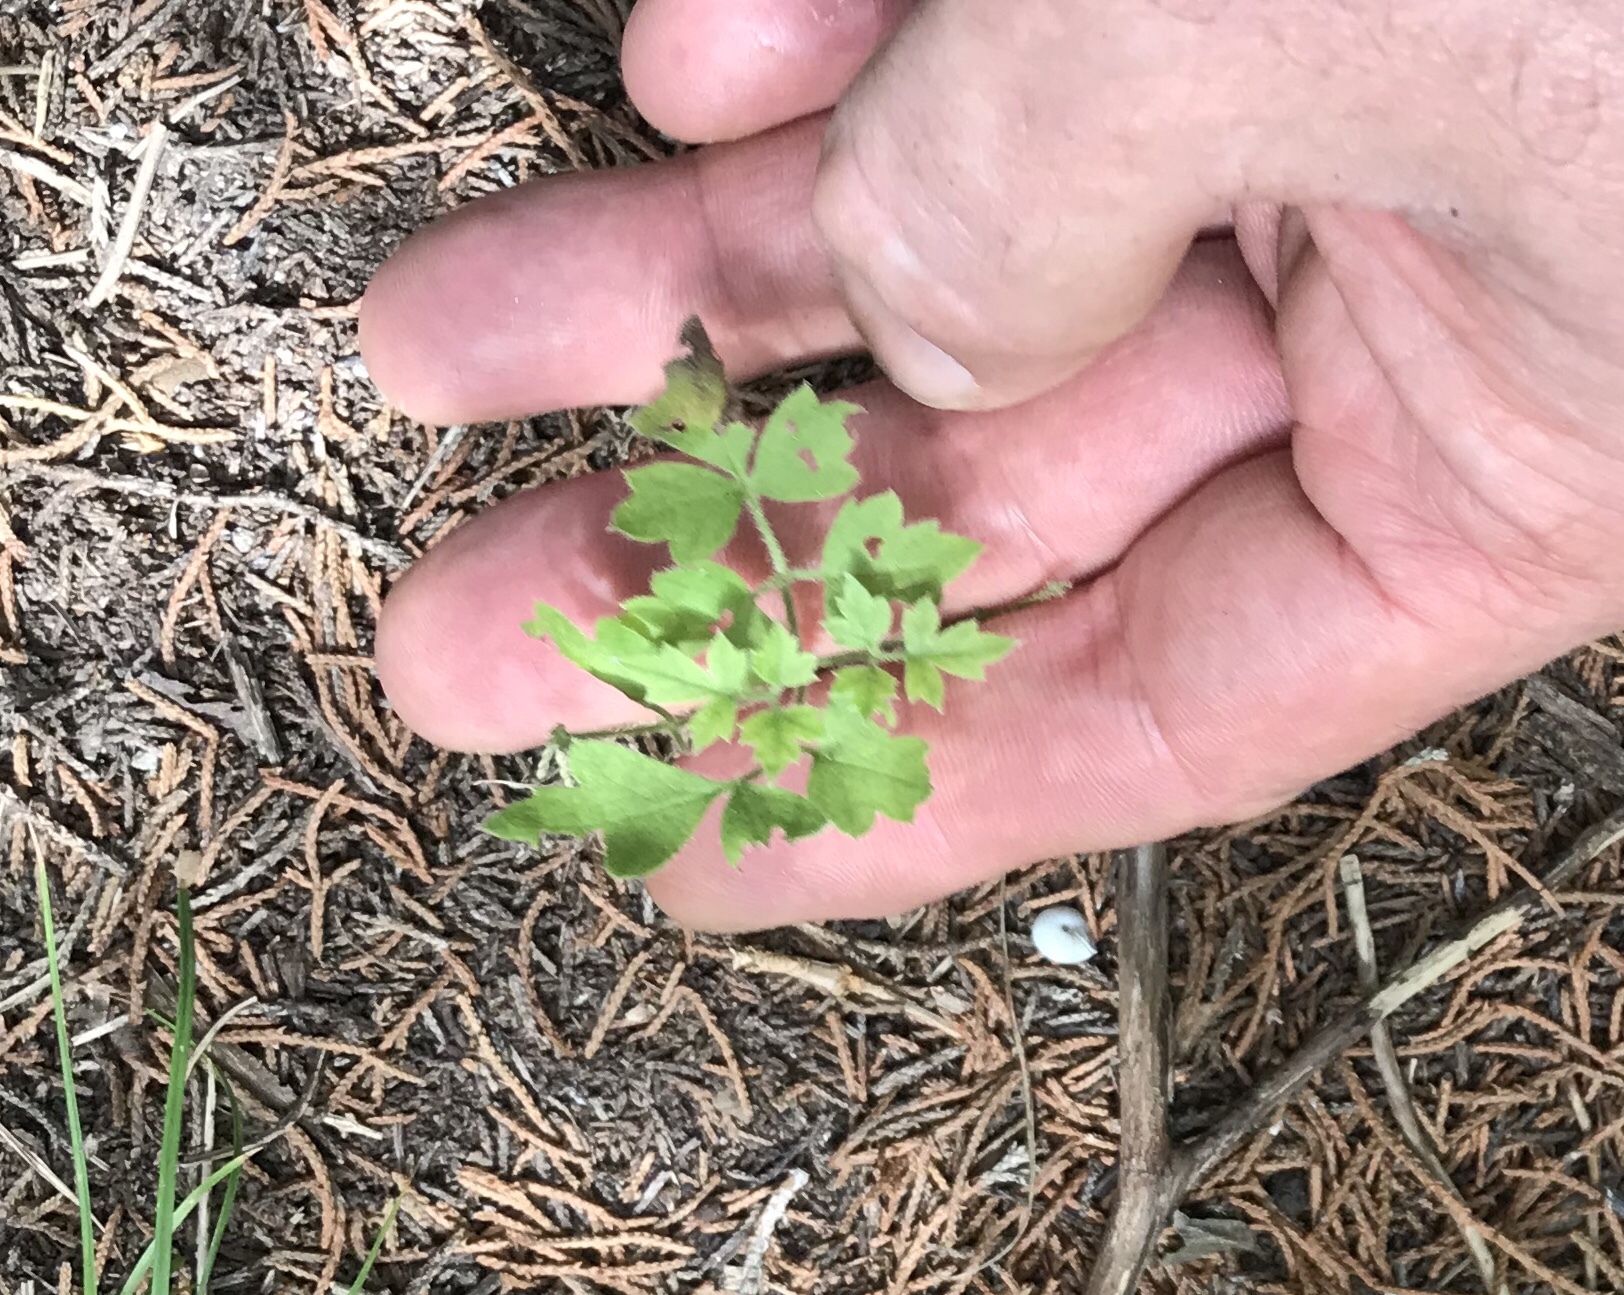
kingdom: Plantae
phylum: Tracheophyta
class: Magnoliopsida
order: Ranunculales
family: Ranunculaceae
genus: Clematis
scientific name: Clematis drummondii
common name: Texas virgin's bower
